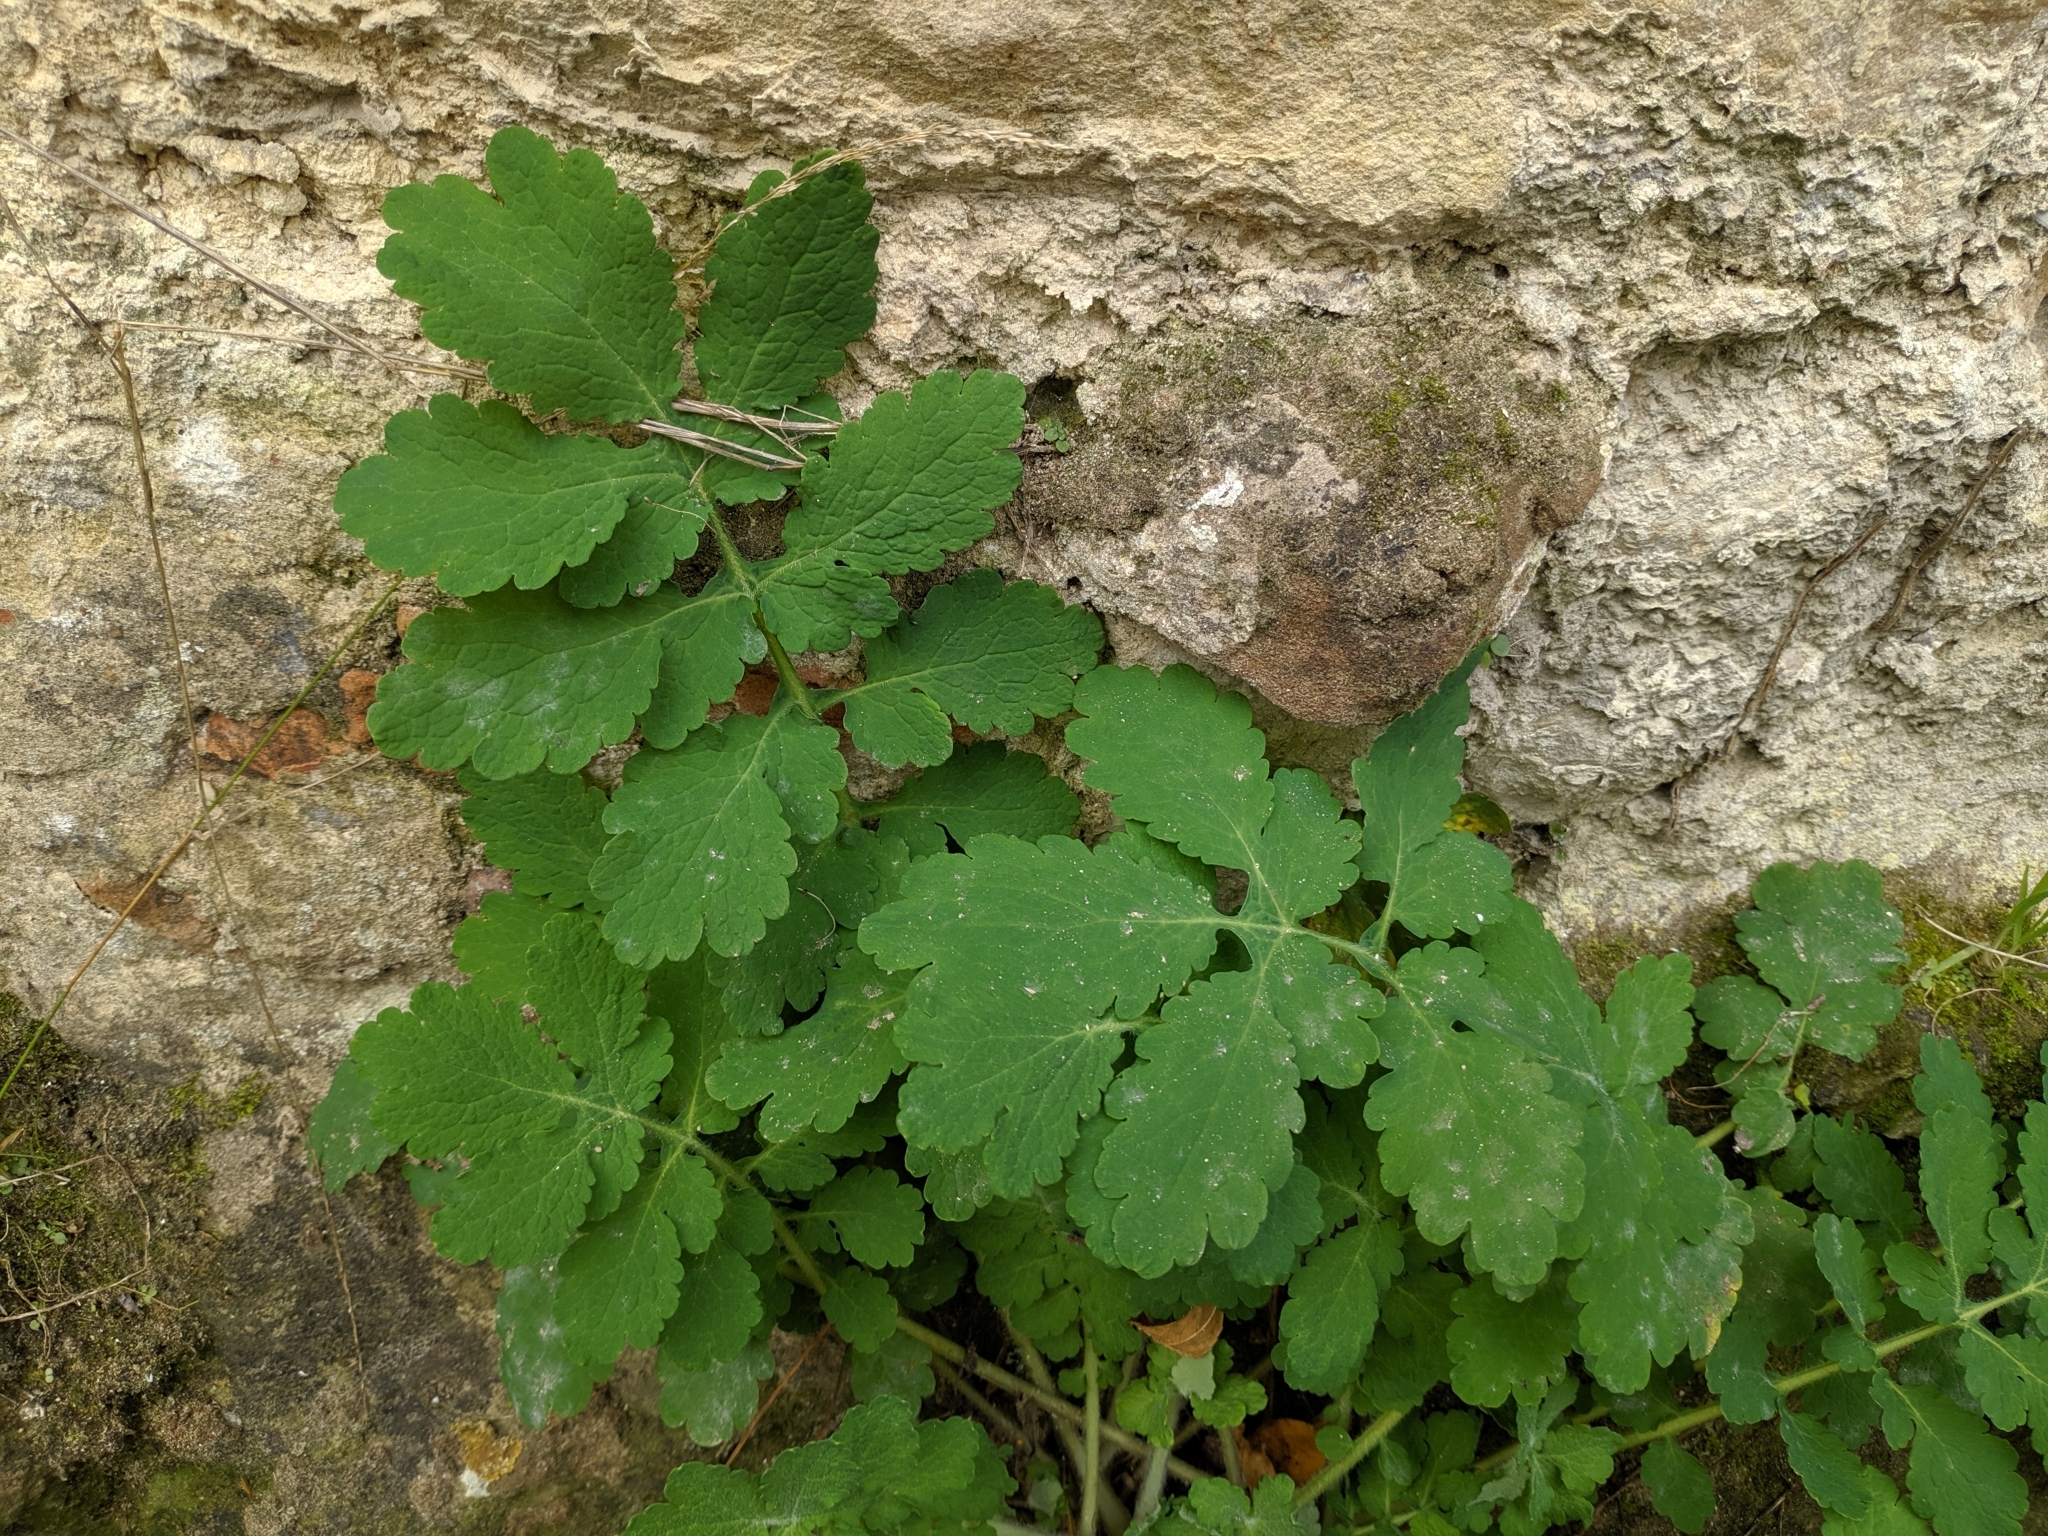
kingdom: Plantae
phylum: Tracheophyta
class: Magnoliopsida
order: Ranunculales
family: Papaveraceae
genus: Chelidonium
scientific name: Chelidonium majus
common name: Greater celandine
